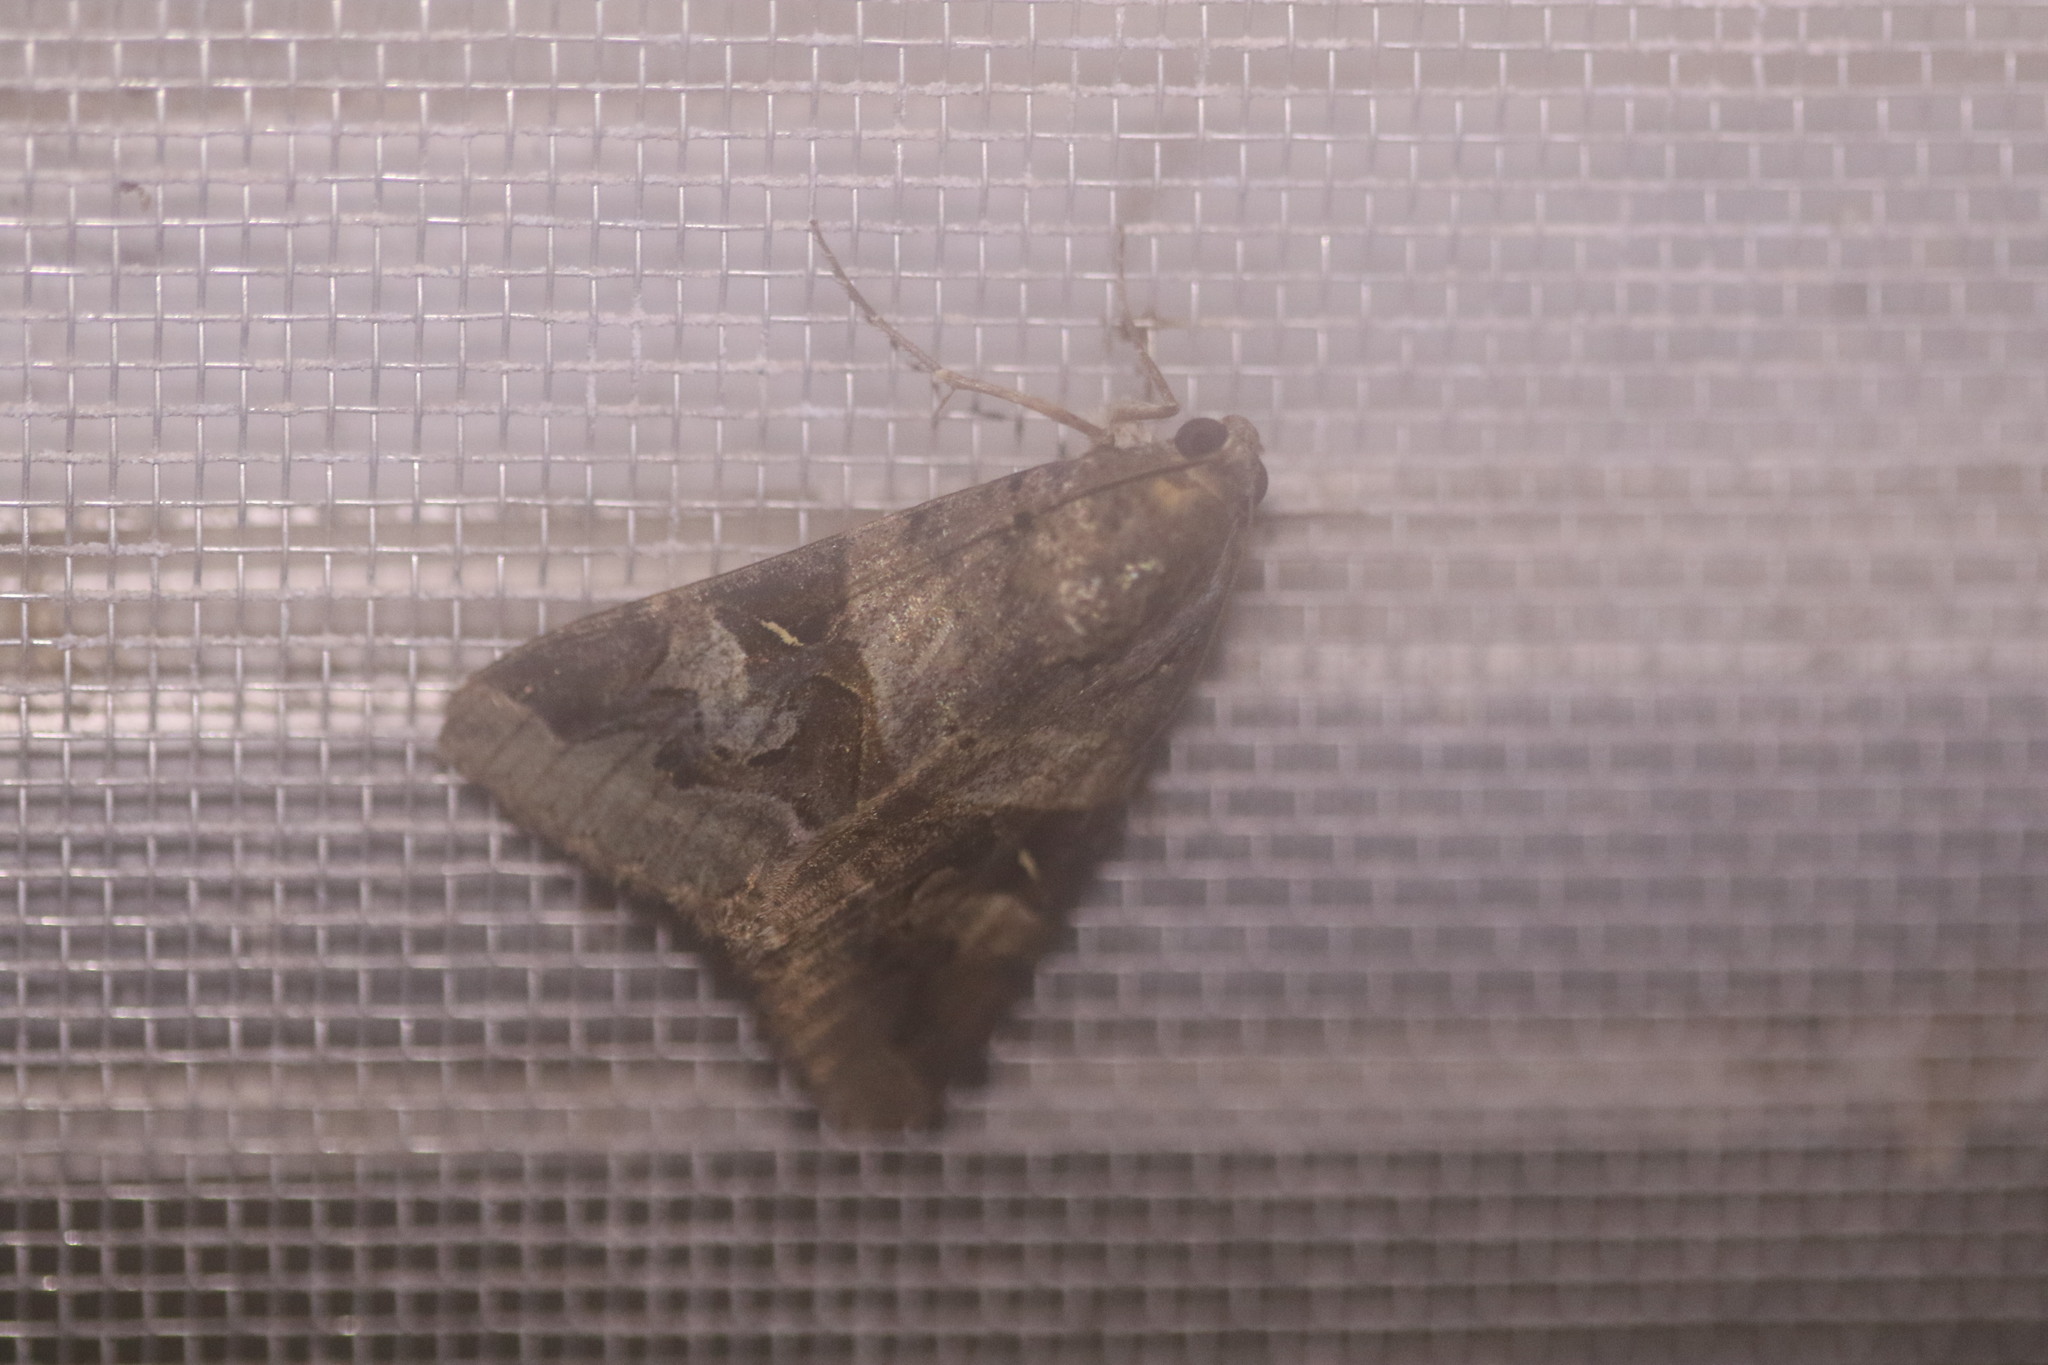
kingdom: Animalia
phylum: Arthropoda
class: Insecta
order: Lepidoptera
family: Erebidae
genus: Melipotis
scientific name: Melipotis indomita
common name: Moth
